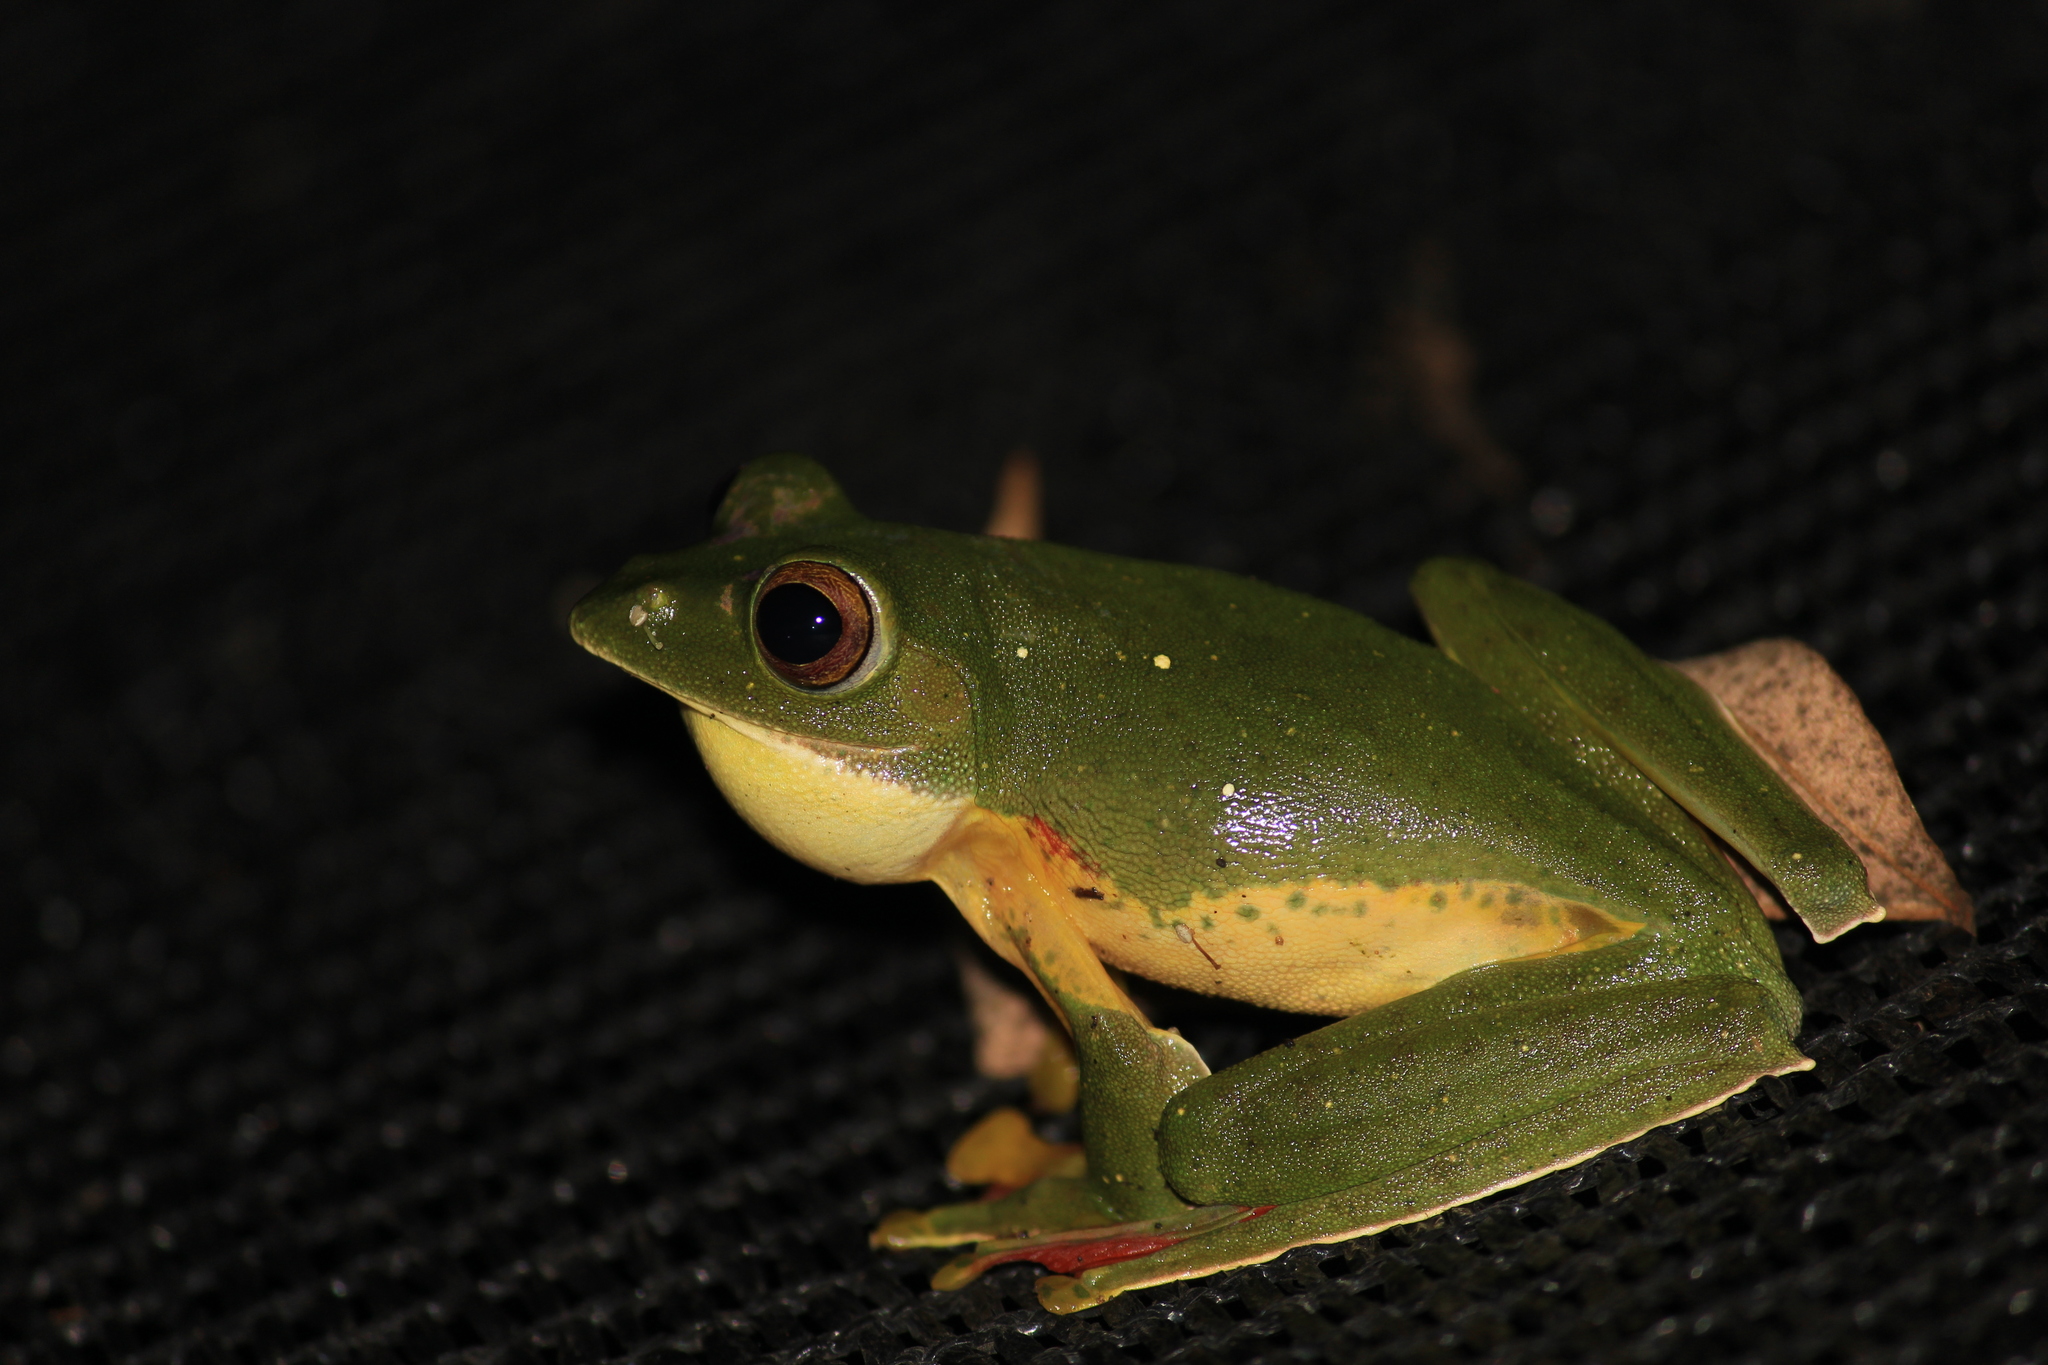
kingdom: Animalia
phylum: Chordata
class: Amphibia
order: Anura
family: Rhacophoridae
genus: Rhacophorus
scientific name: Rhacophorus malabaricus
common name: Malabar gliding frog
